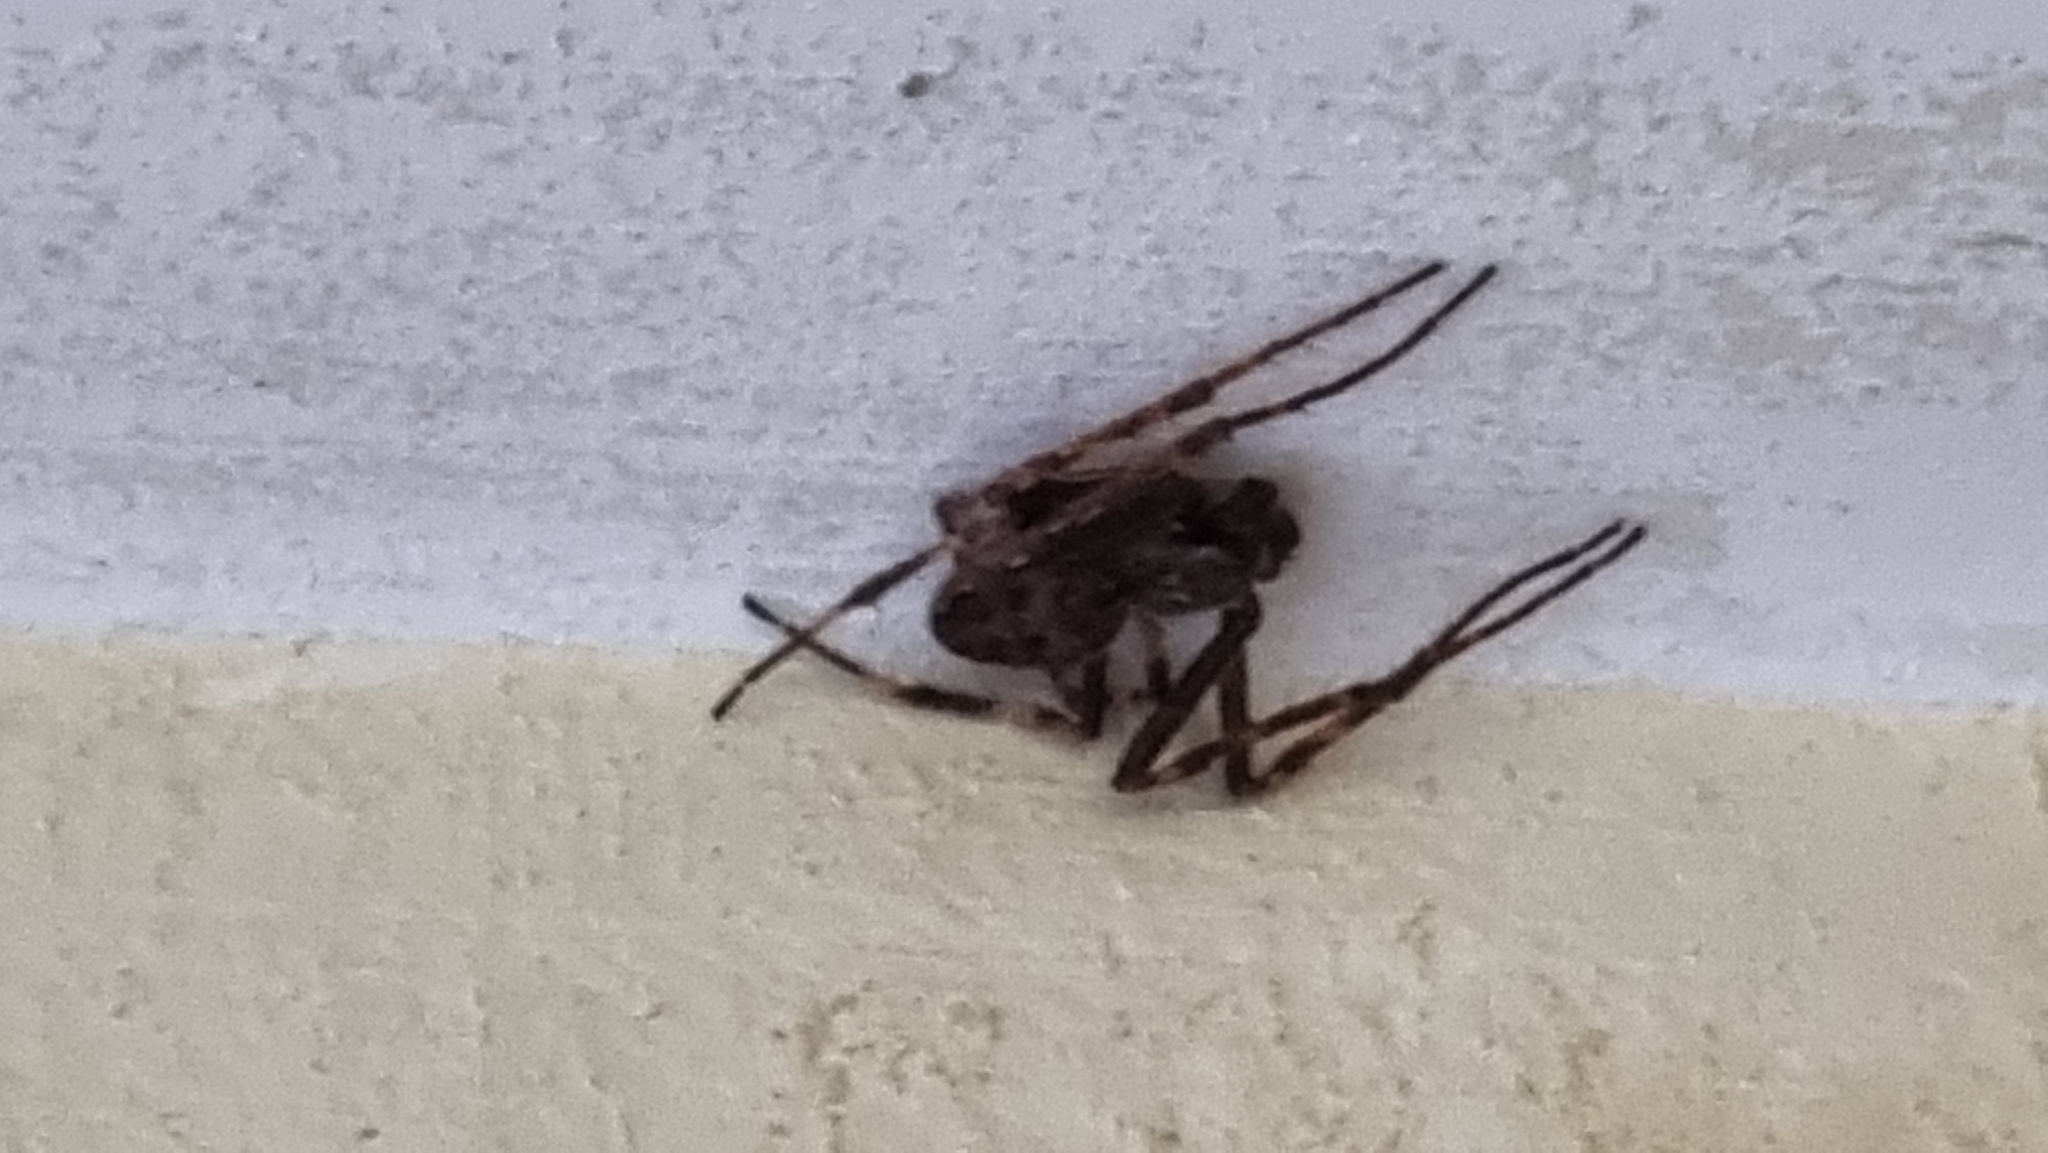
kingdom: Animalia
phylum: Arthropoda
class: Arachnida
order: Araneae
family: Araneidae
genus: Nuctenea
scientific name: Nuctenea umbratica
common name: Toad spider
